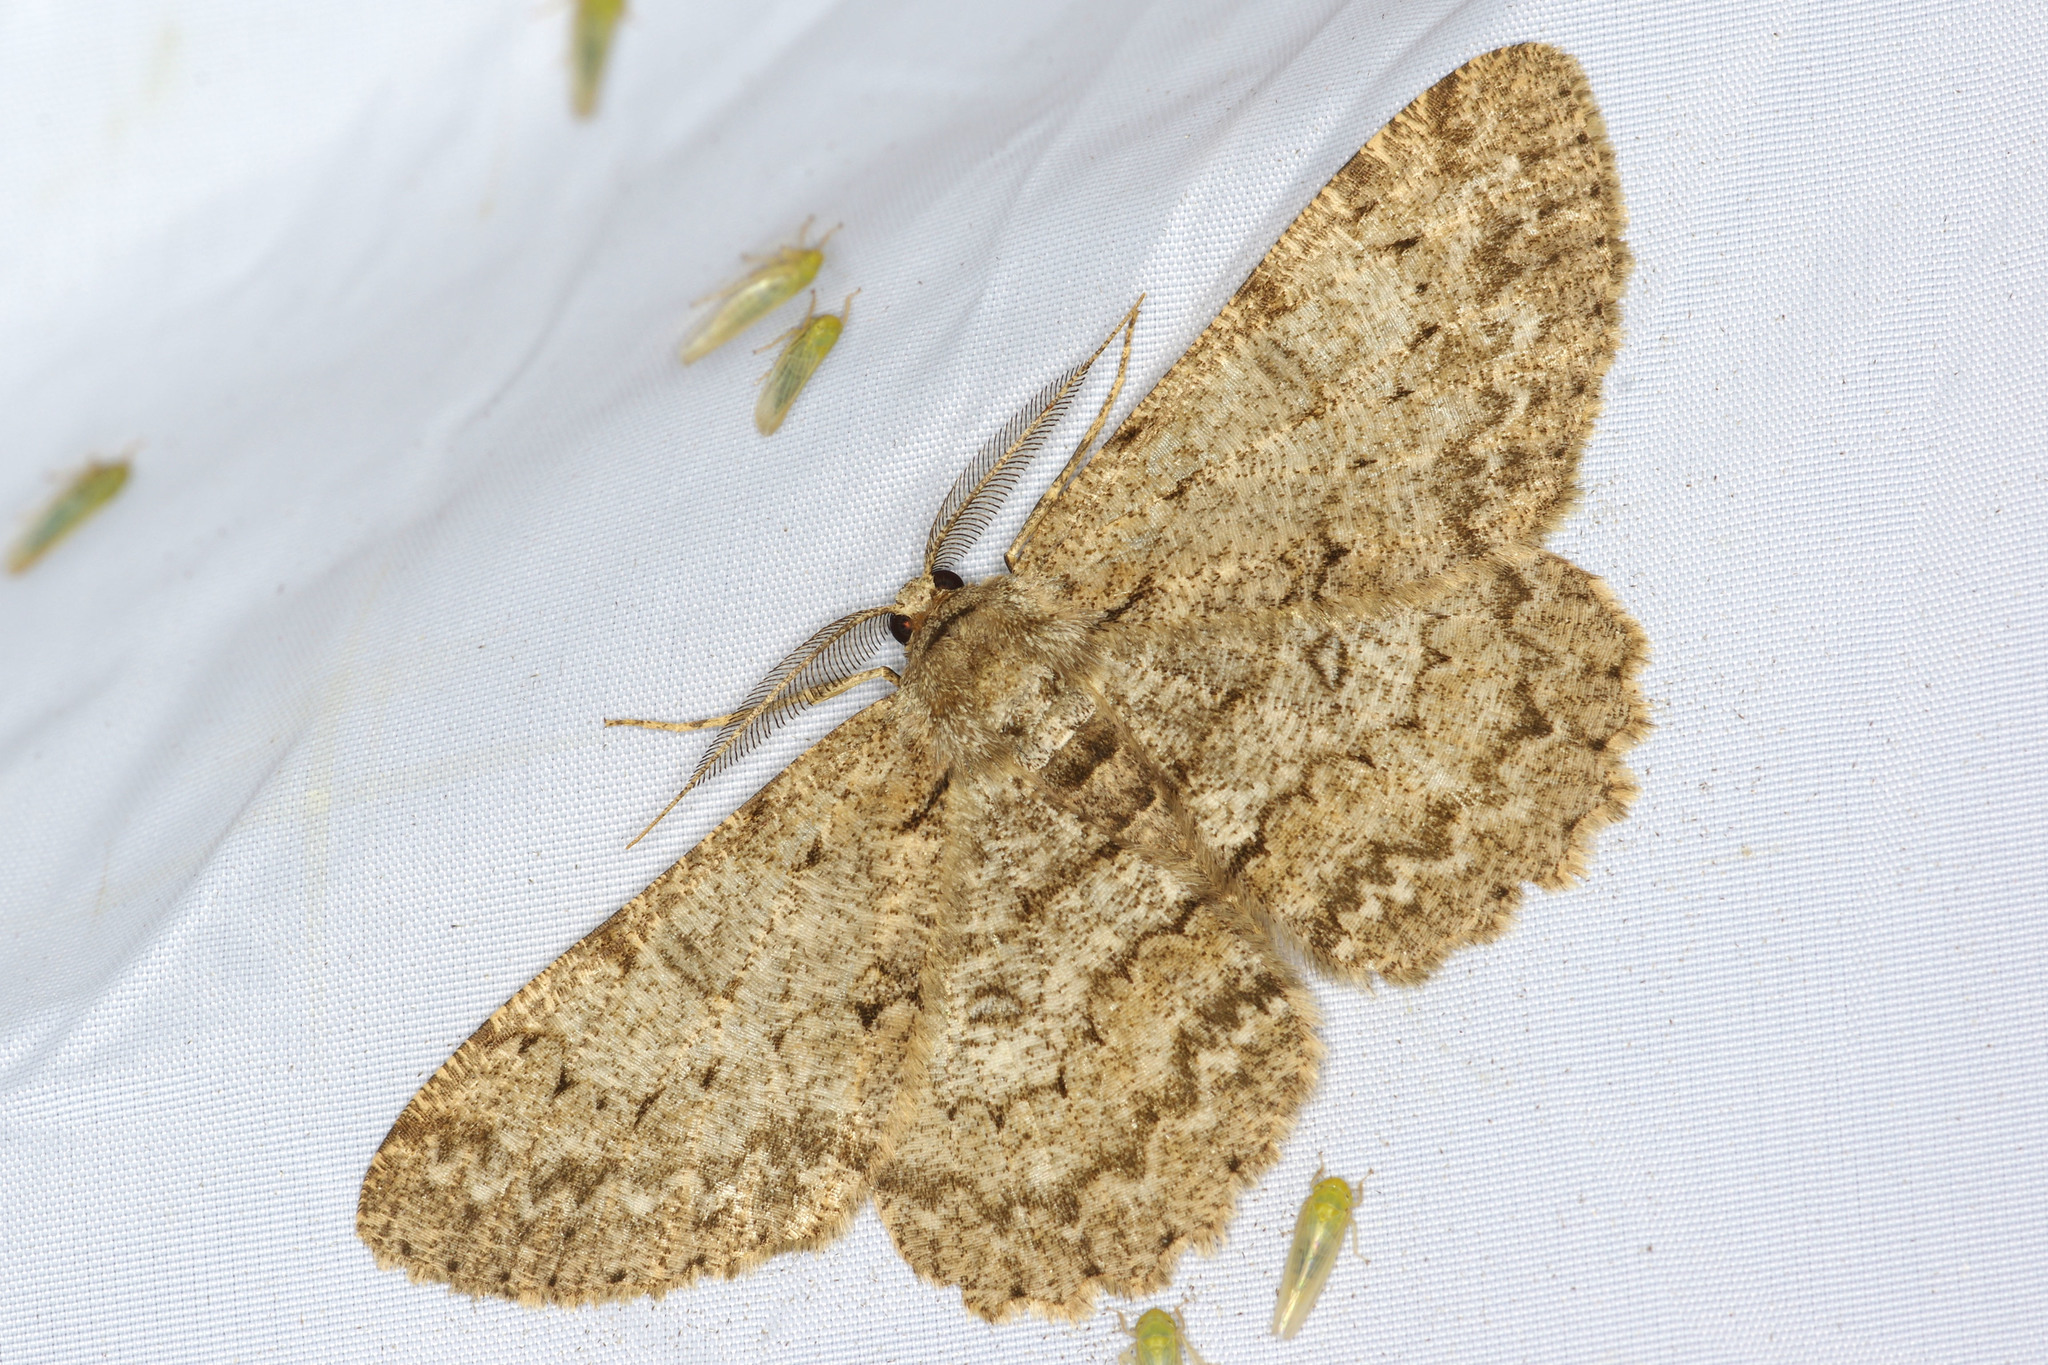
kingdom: Animalia
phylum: Arthropoda
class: Insecta
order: Lepidoptera
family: Geometridae
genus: Hypomecis
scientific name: Hypomecis punctinalis
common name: Pale oak beauty
